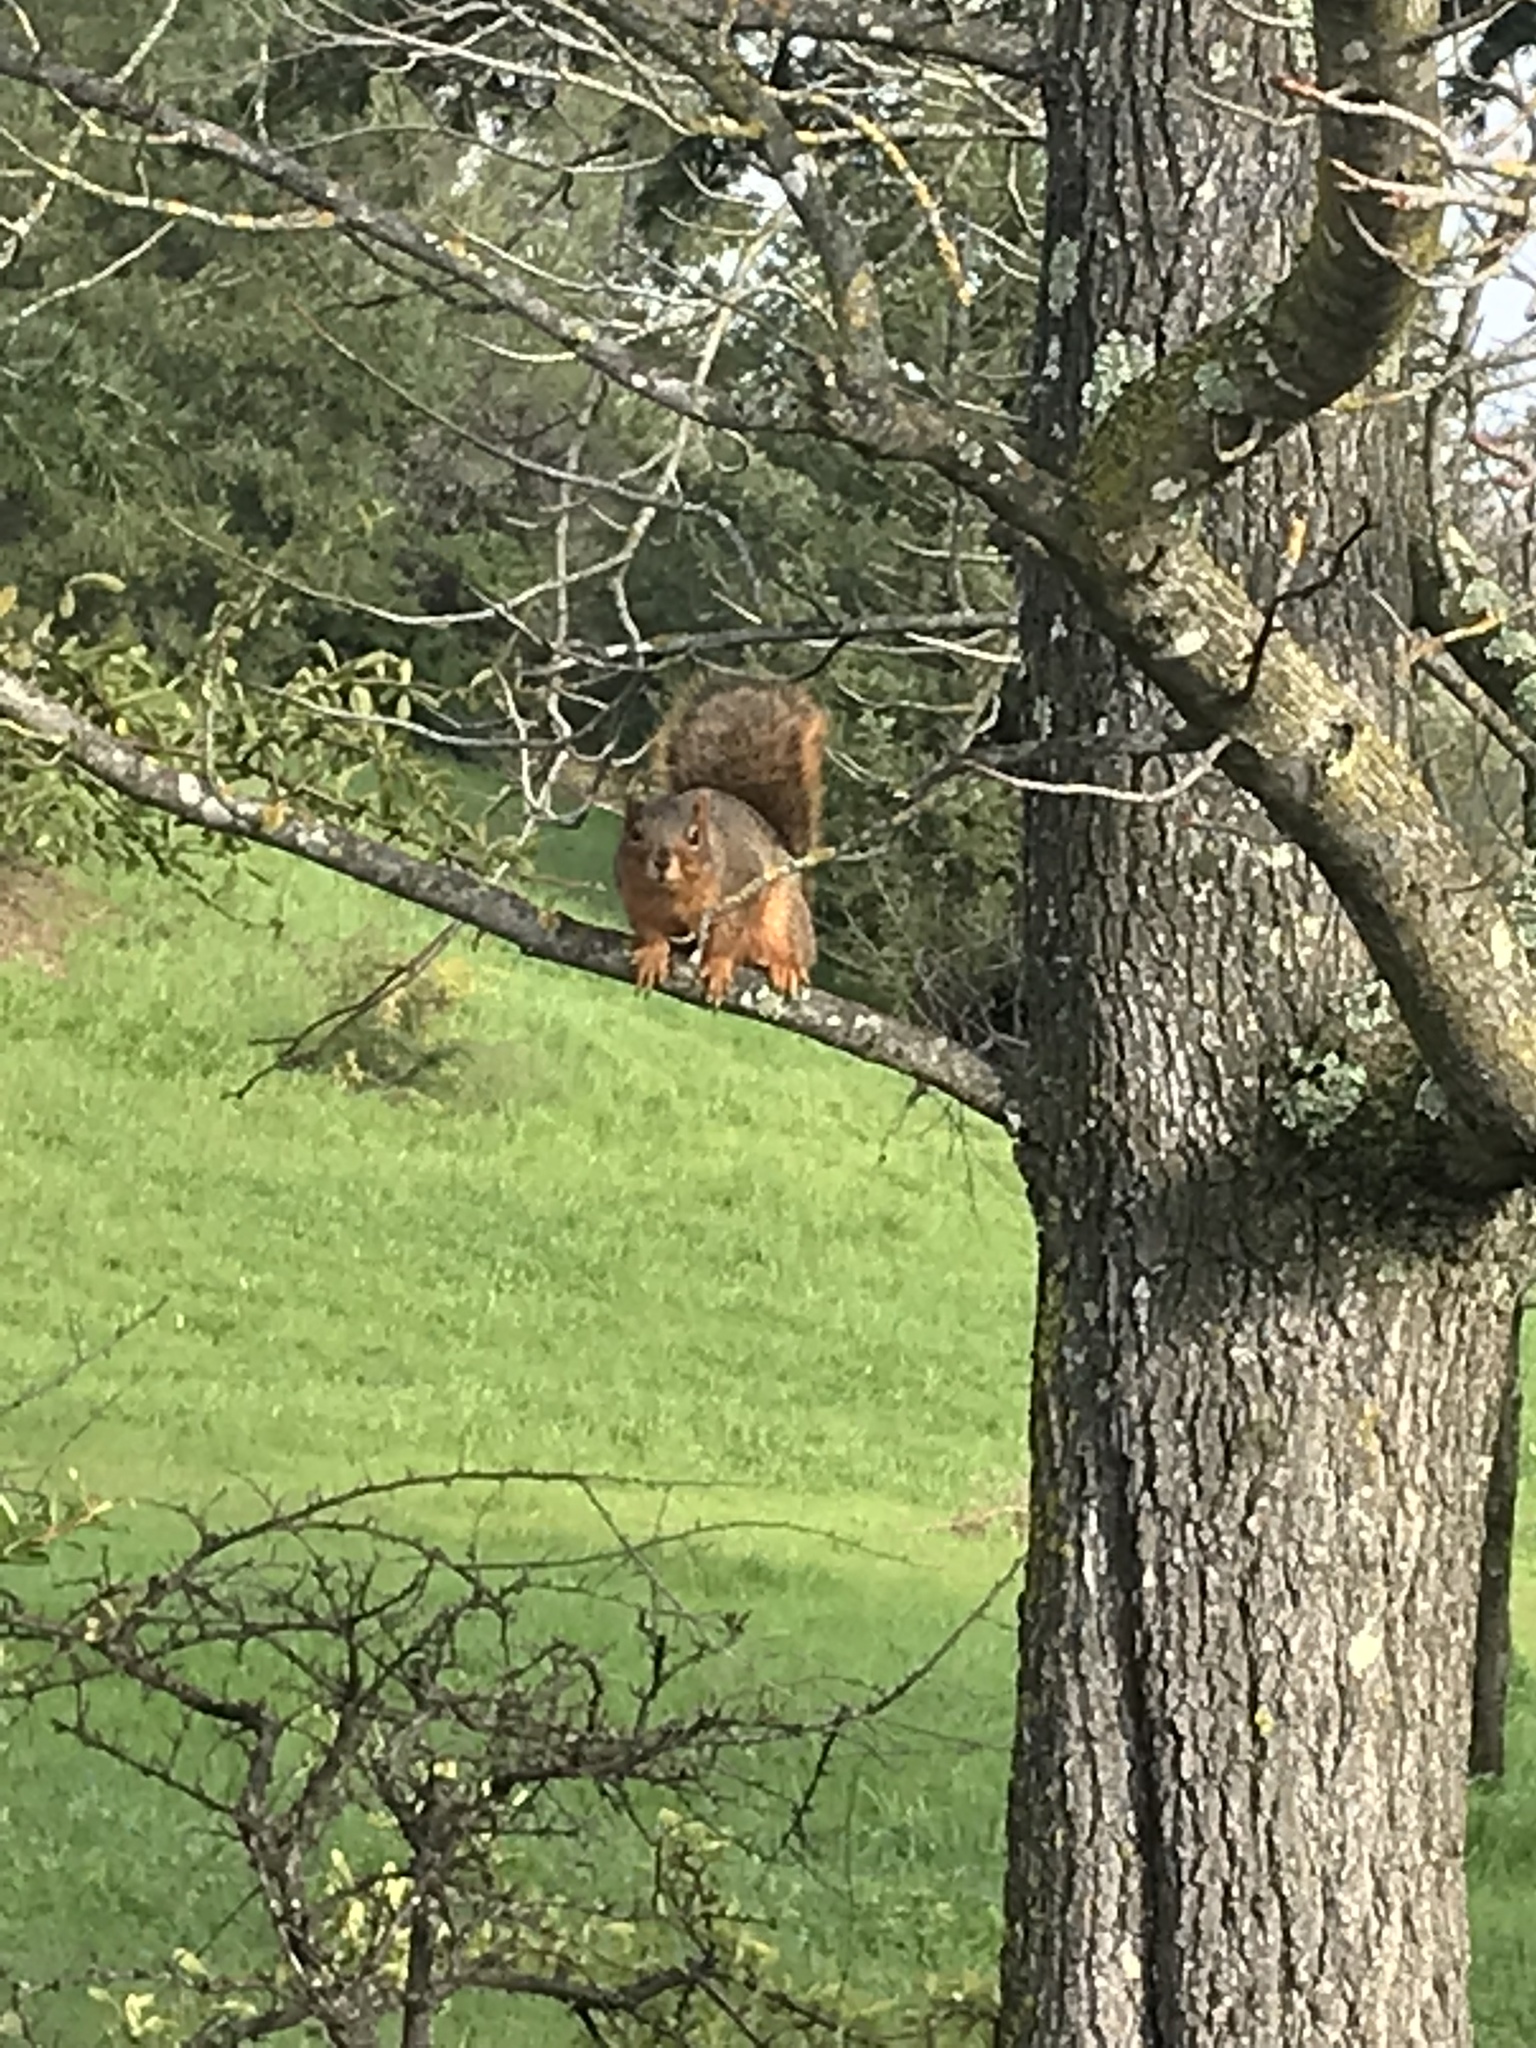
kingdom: Animalia
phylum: Chordata
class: Mammalia
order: Rodentia
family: Sciuridae
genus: Sciurus
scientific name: Sciurus niger
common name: Fox squirrel
